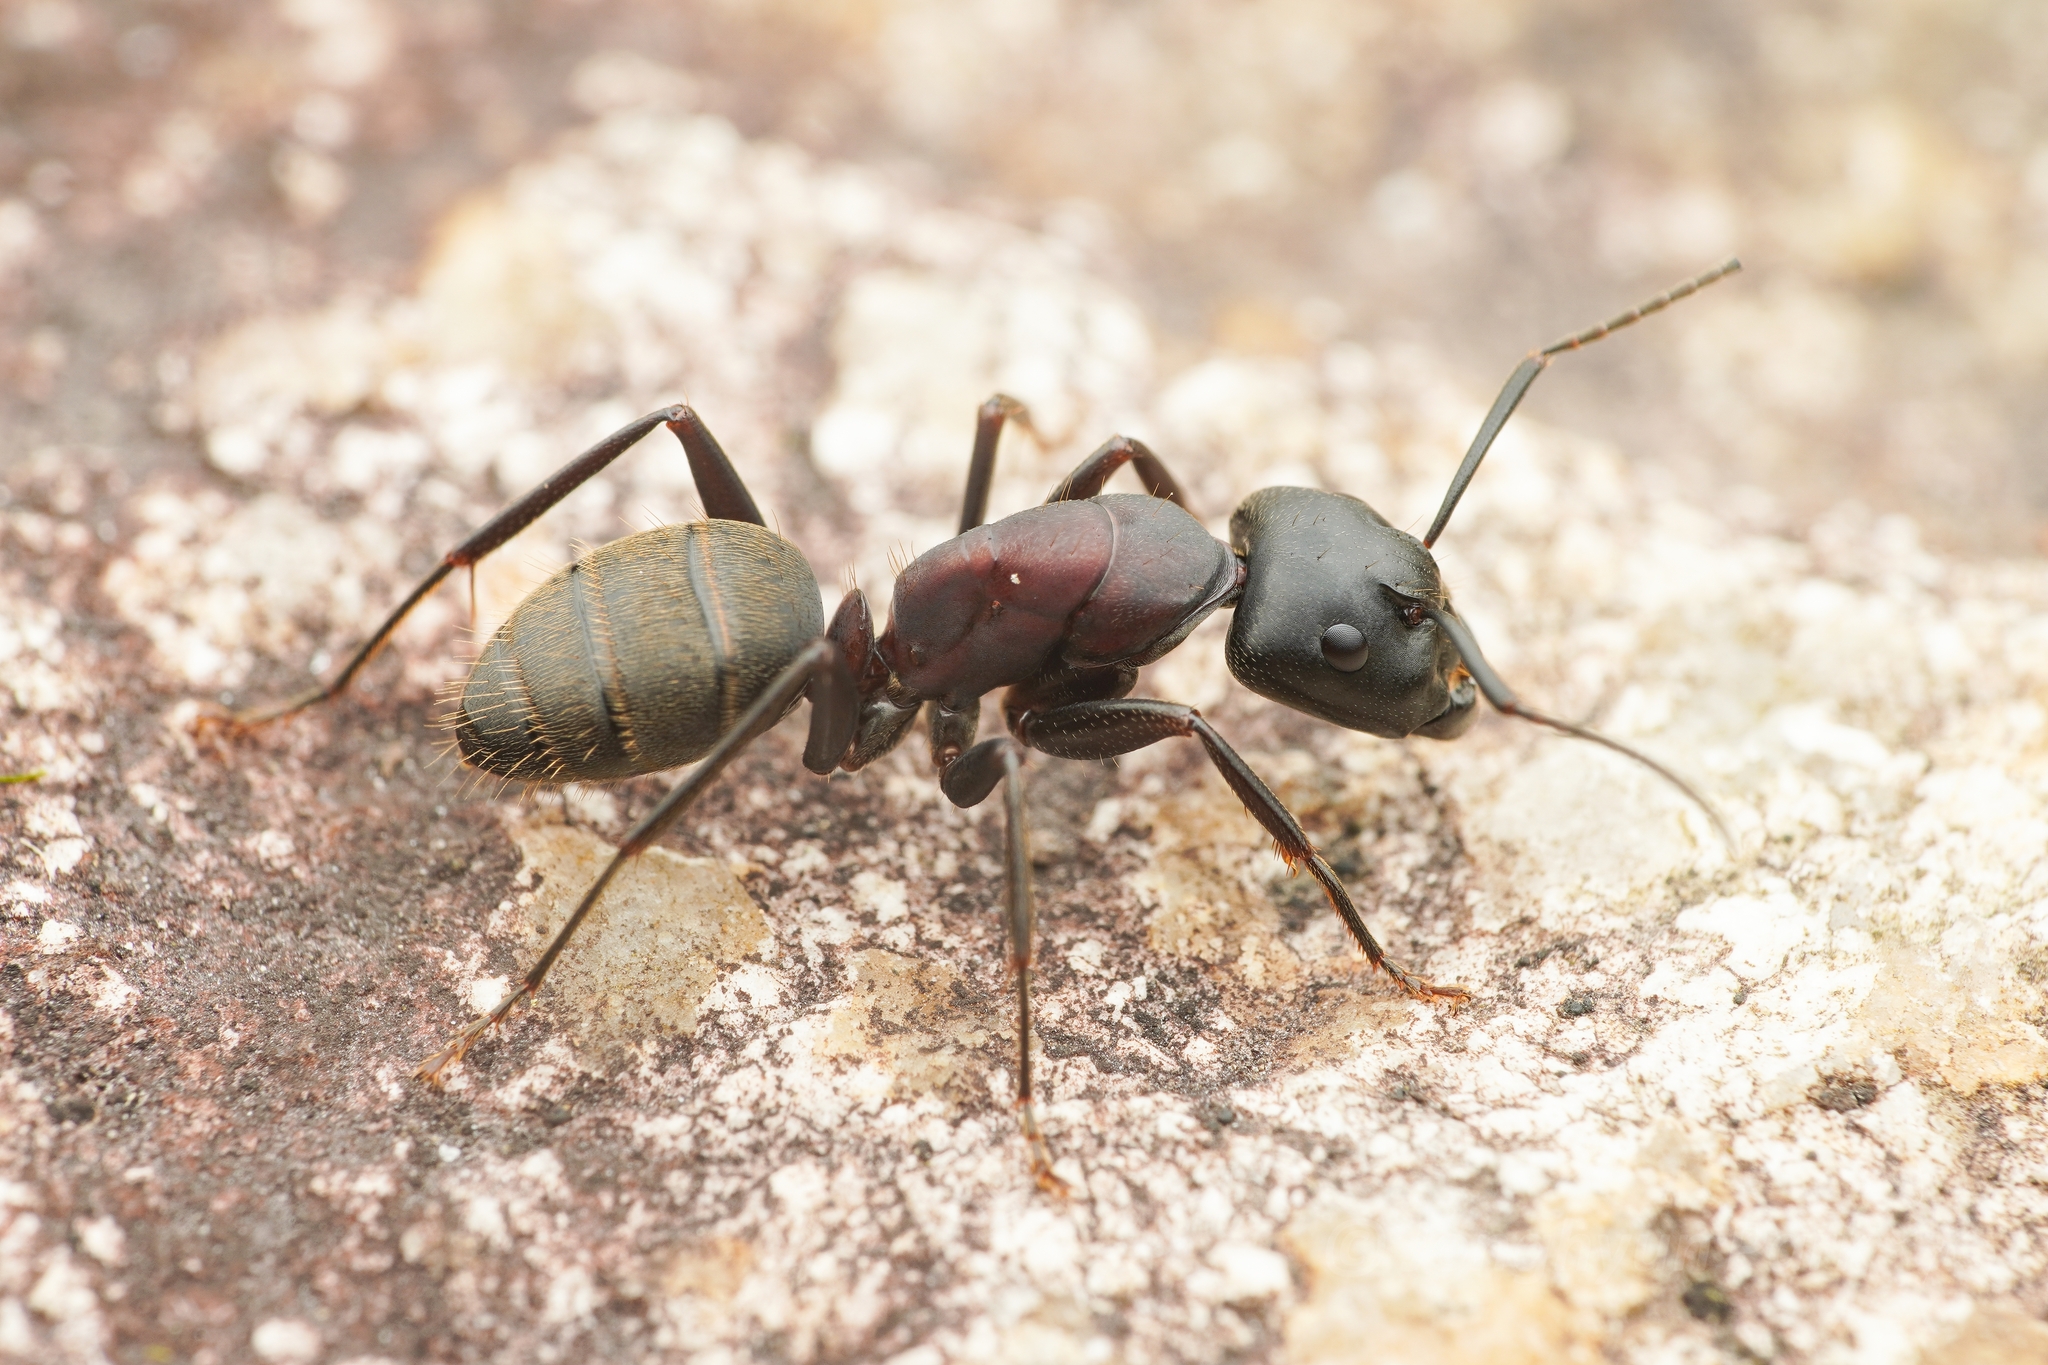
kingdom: Animalia
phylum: Arthropoda
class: Insecta
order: Hymenoptera
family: Formicidae
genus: Camponotus
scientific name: Camponotus atrox
